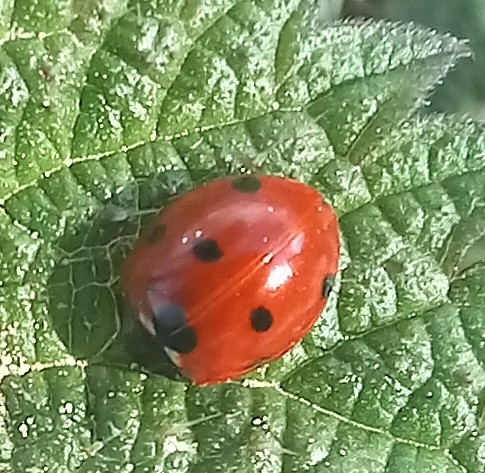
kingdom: Animalia
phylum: Arthropoda
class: Insecta
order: Coleoptera
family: Coccinellidae
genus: Coccinella
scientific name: Coccinella septempunctata
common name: Sevenspotted lady beetle
